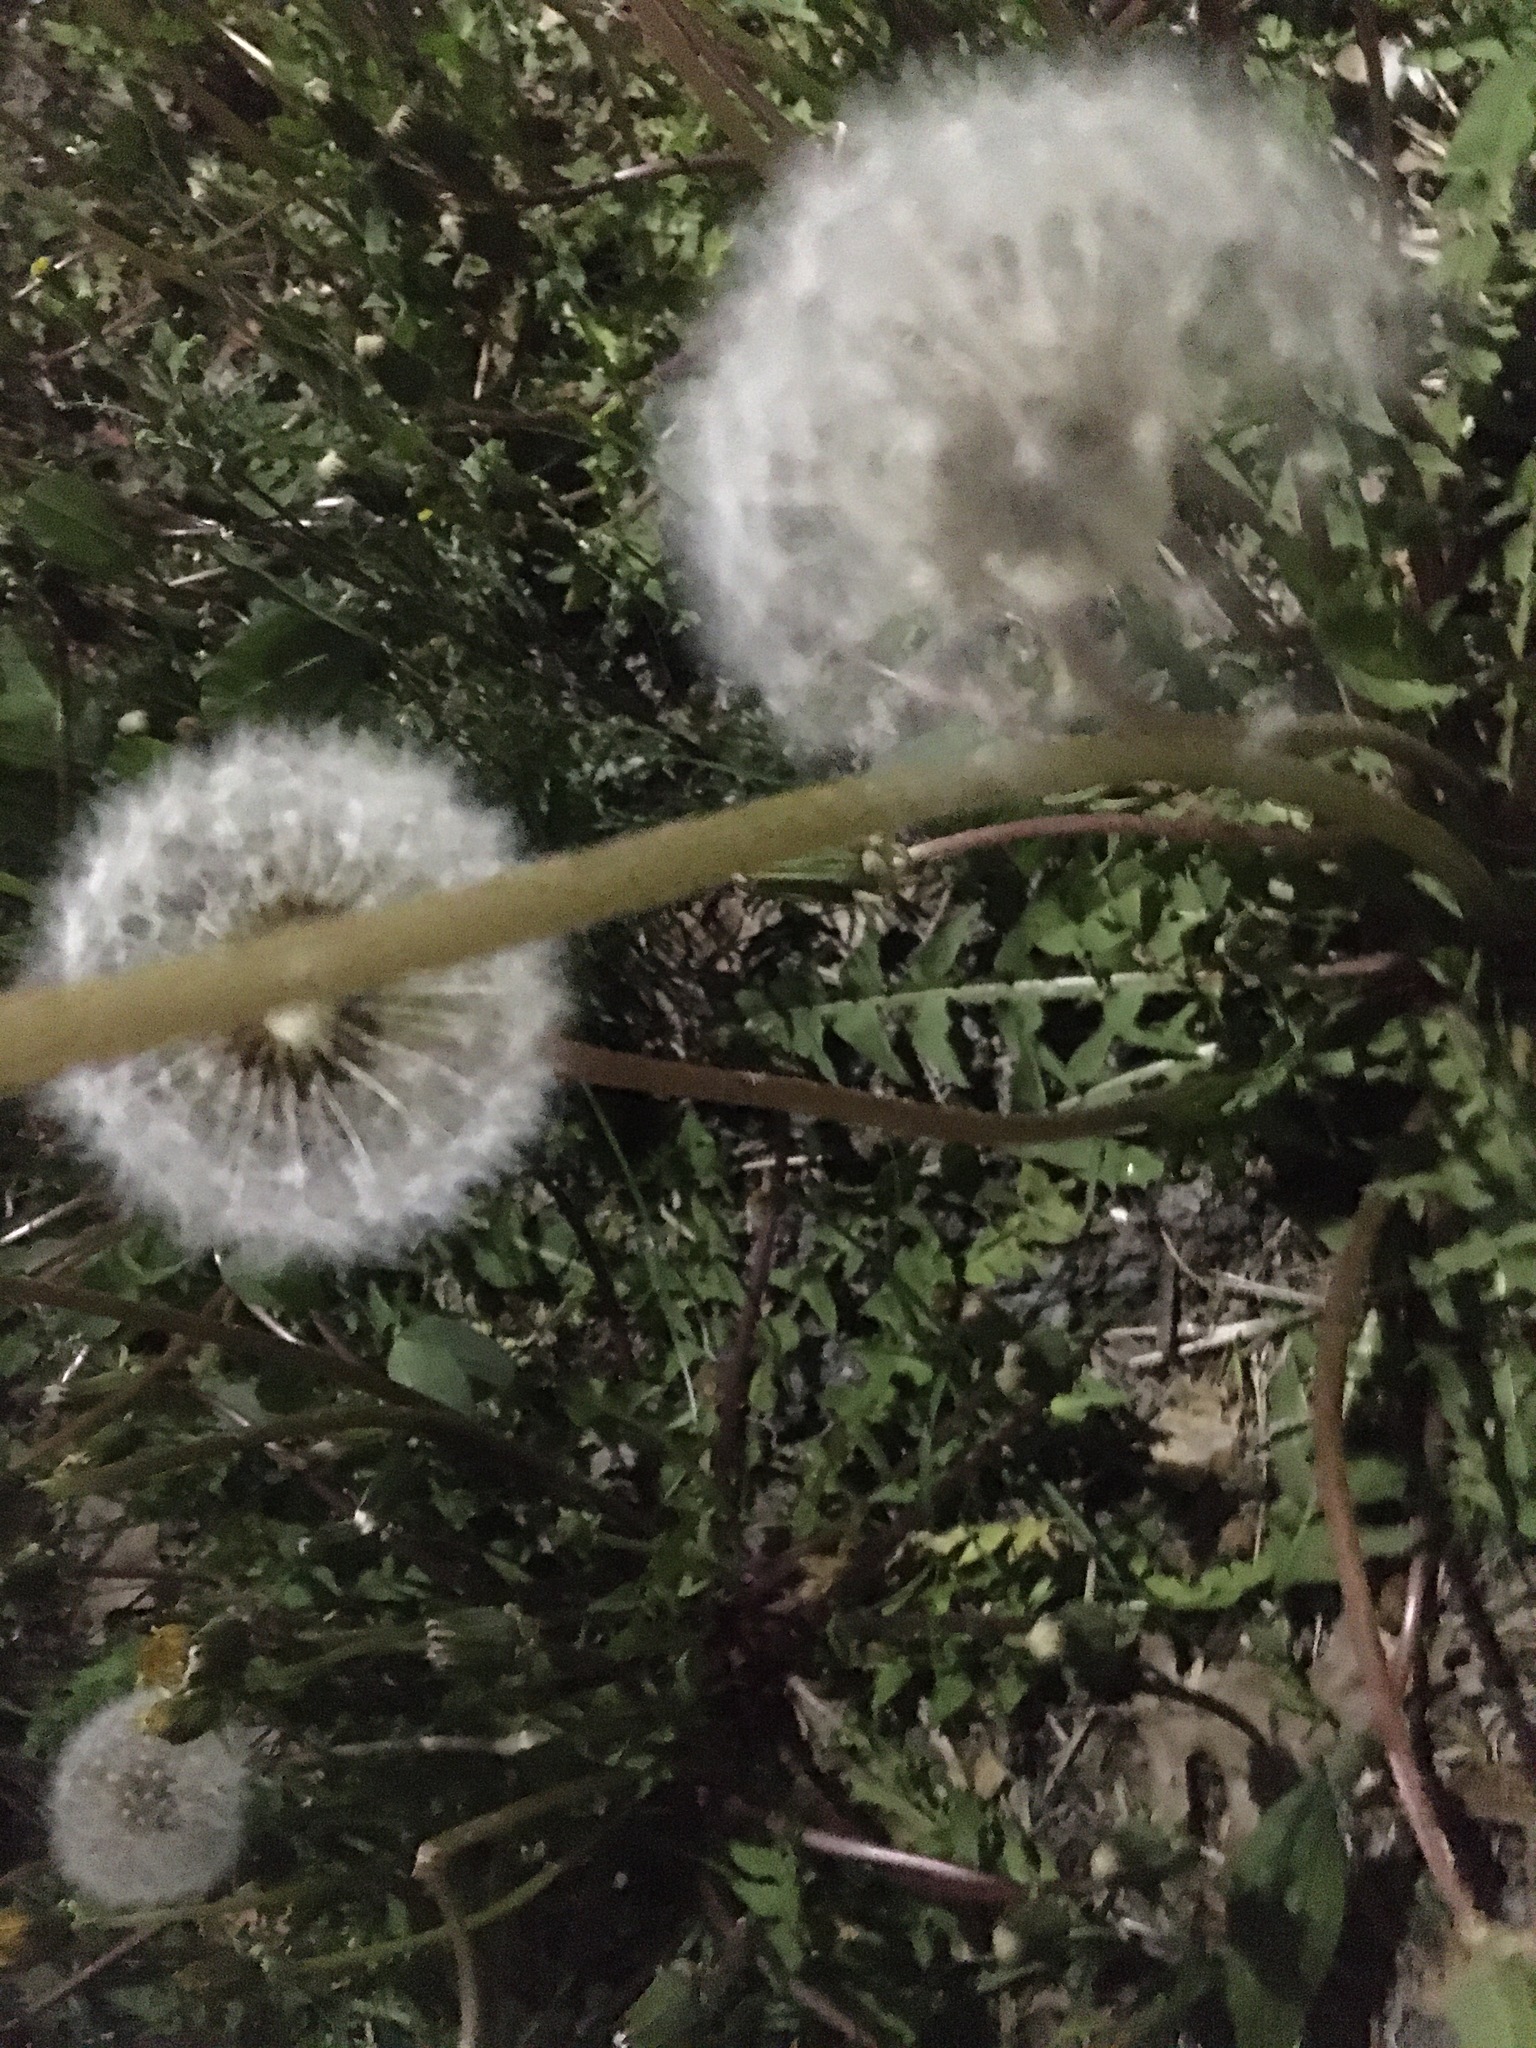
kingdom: Plantae
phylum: Tracheophyta
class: Magnoliopsida
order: Asterales
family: Asteraceae
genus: Taraxacum
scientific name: Taraxacum officinale
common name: Common dandelion
